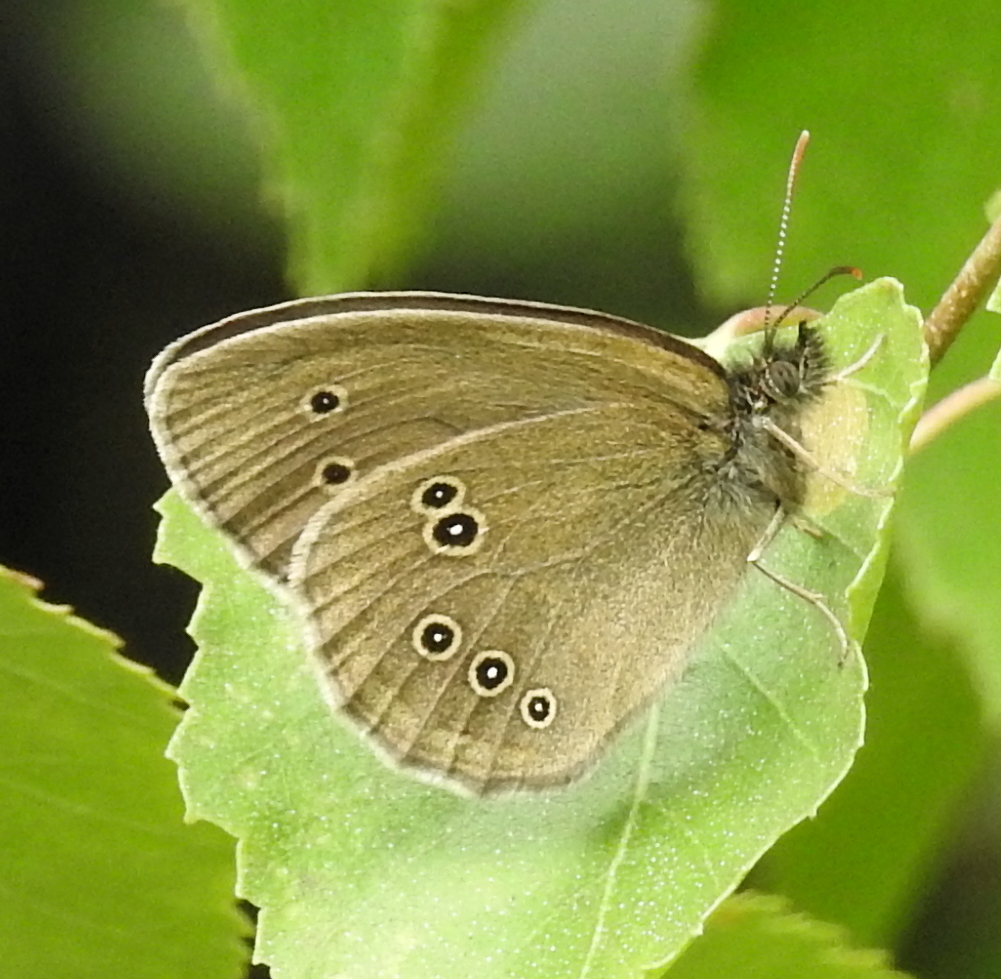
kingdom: Animalia
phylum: Arthropoda
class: Insecta
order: Lepidoptera
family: Nymphalidae
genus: Aphantopus
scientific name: Aphantopus hyperantus
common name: Ringlet
